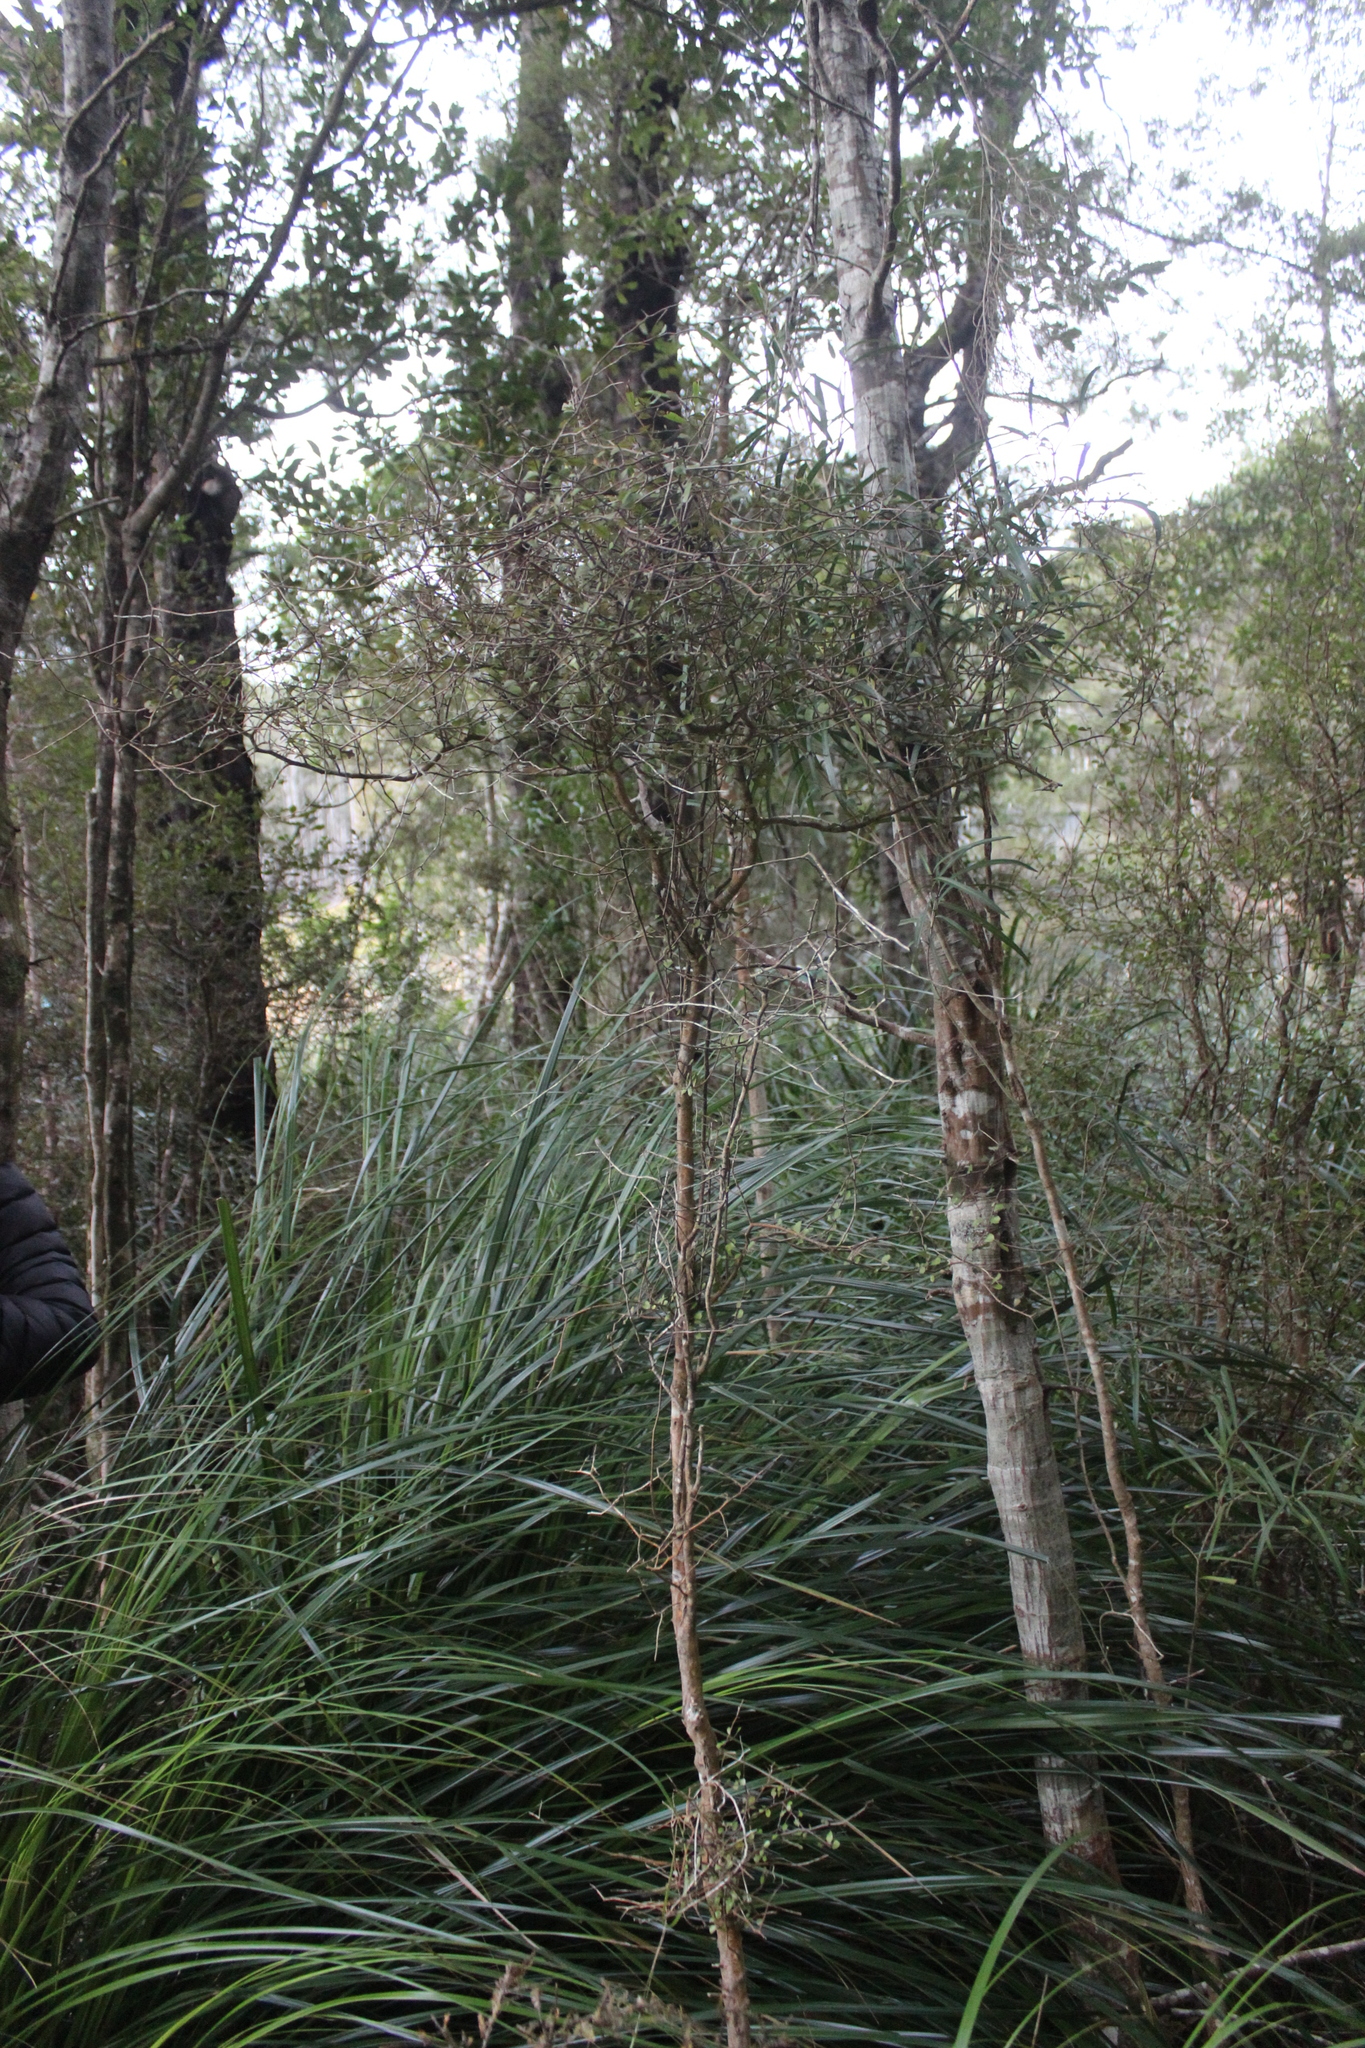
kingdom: Plantae
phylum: Tracheophyta
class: Magnoliopsida
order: Oxalidales
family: Elaeocarpaceae
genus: Elaeocarpus
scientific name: Elaeocarpus hookerianus
